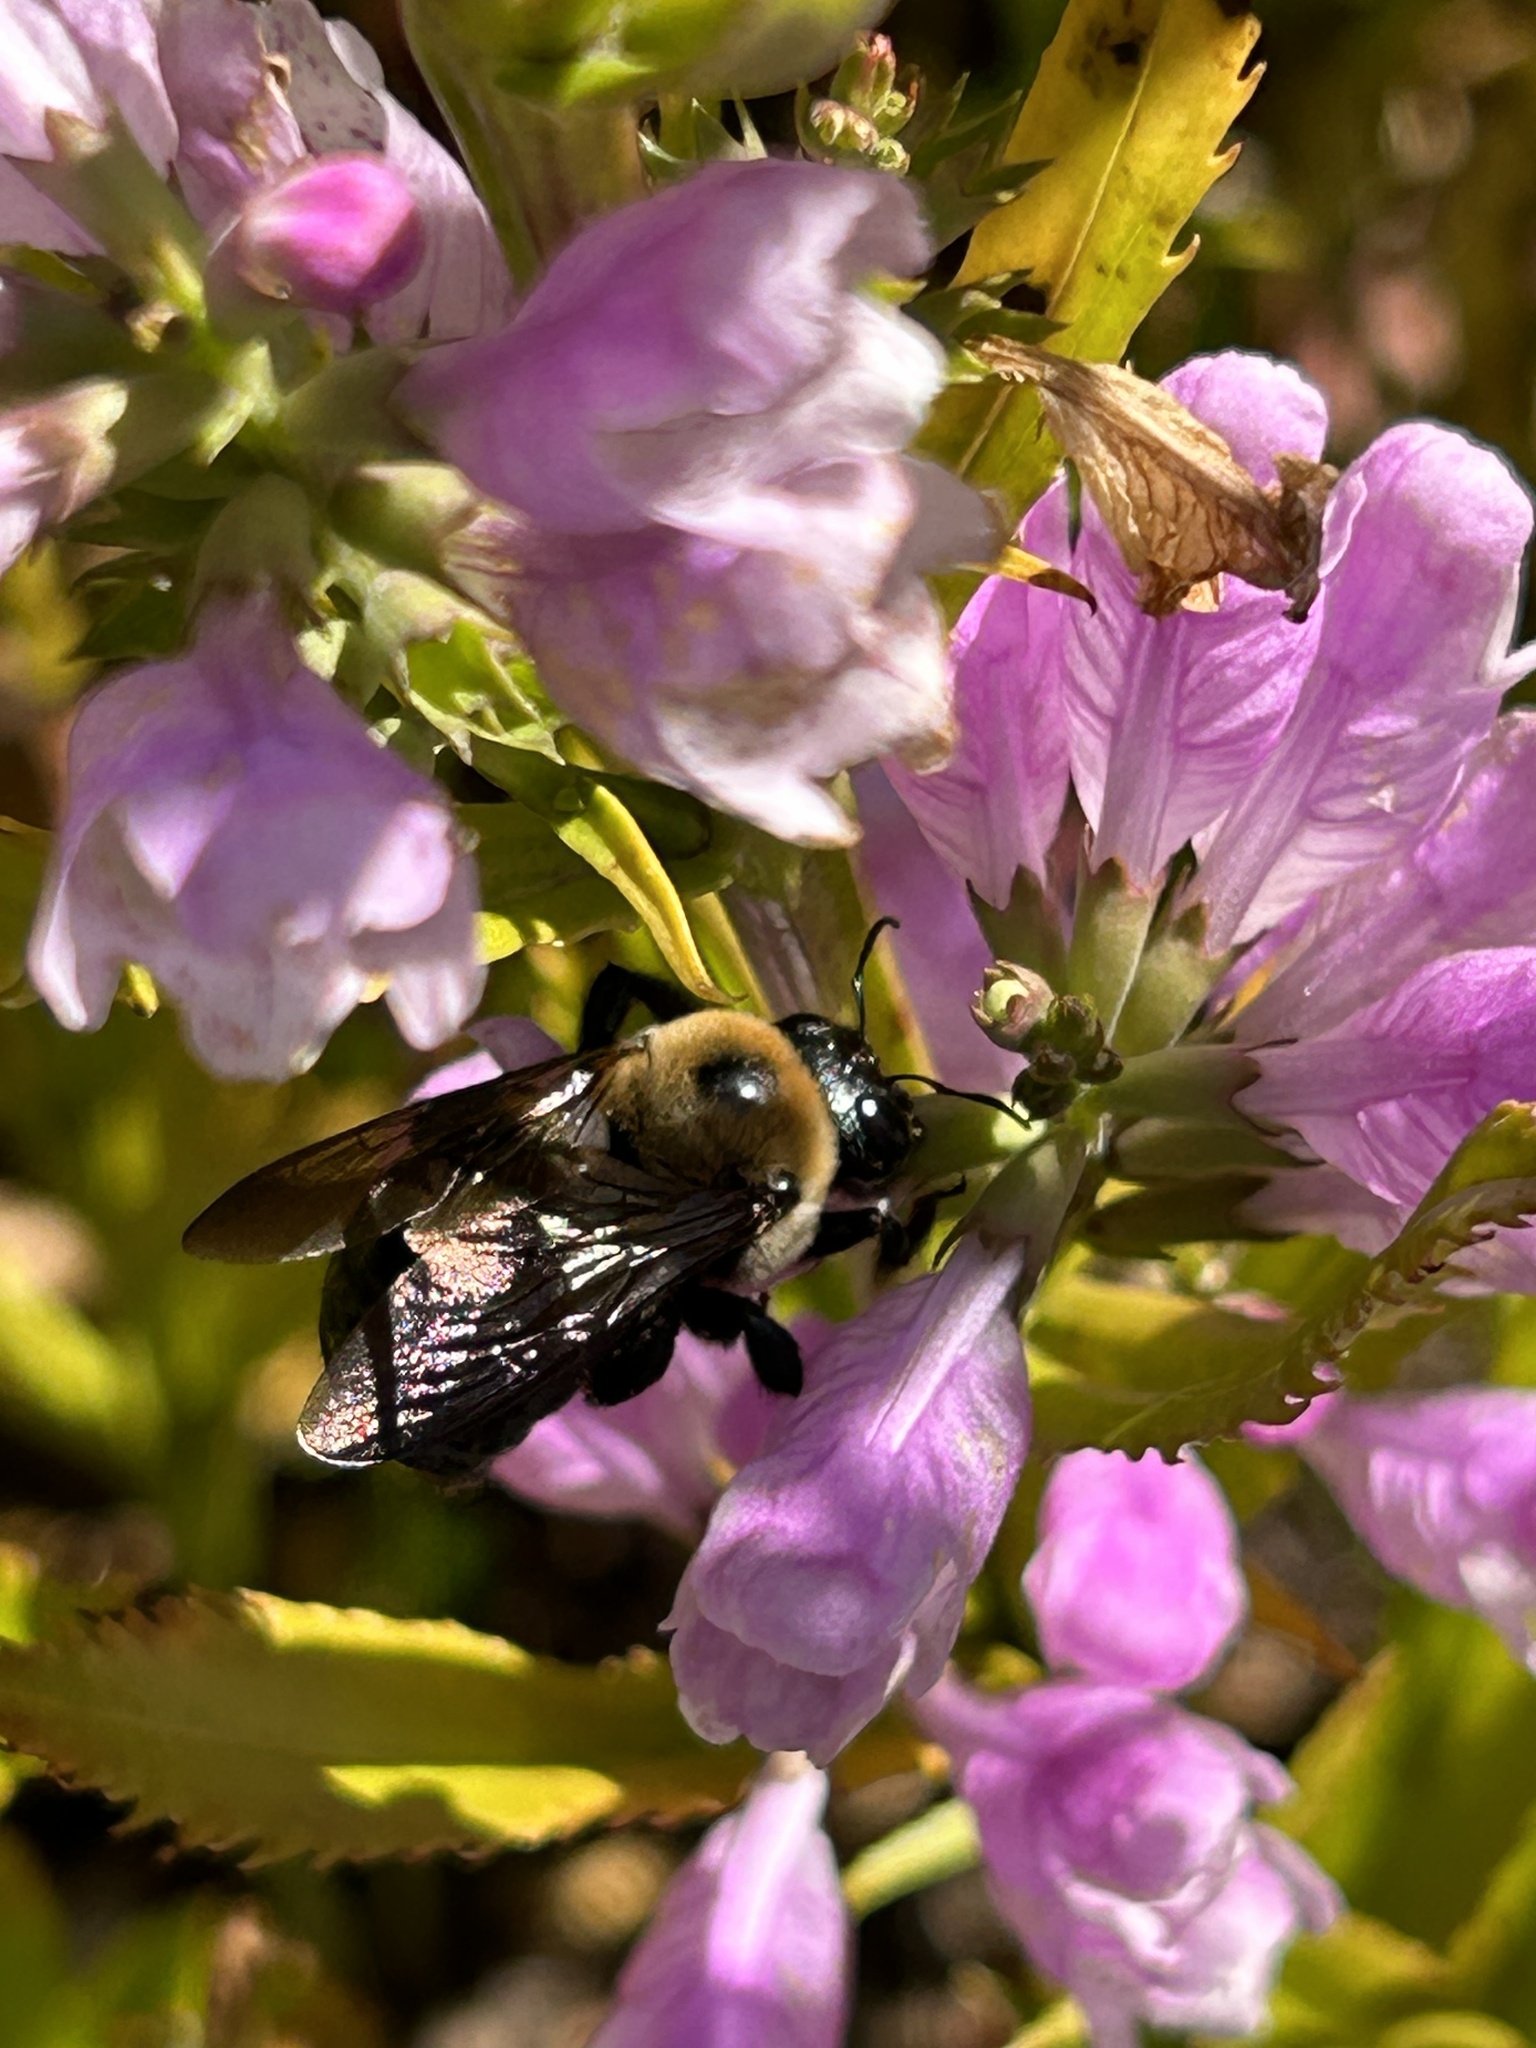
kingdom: Animalia
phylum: Arthropoda
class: Insecta
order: Hymenoptera
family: Apidae
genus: Xylocopa
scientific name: Xylocopa virginica
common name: Carpenter bee
